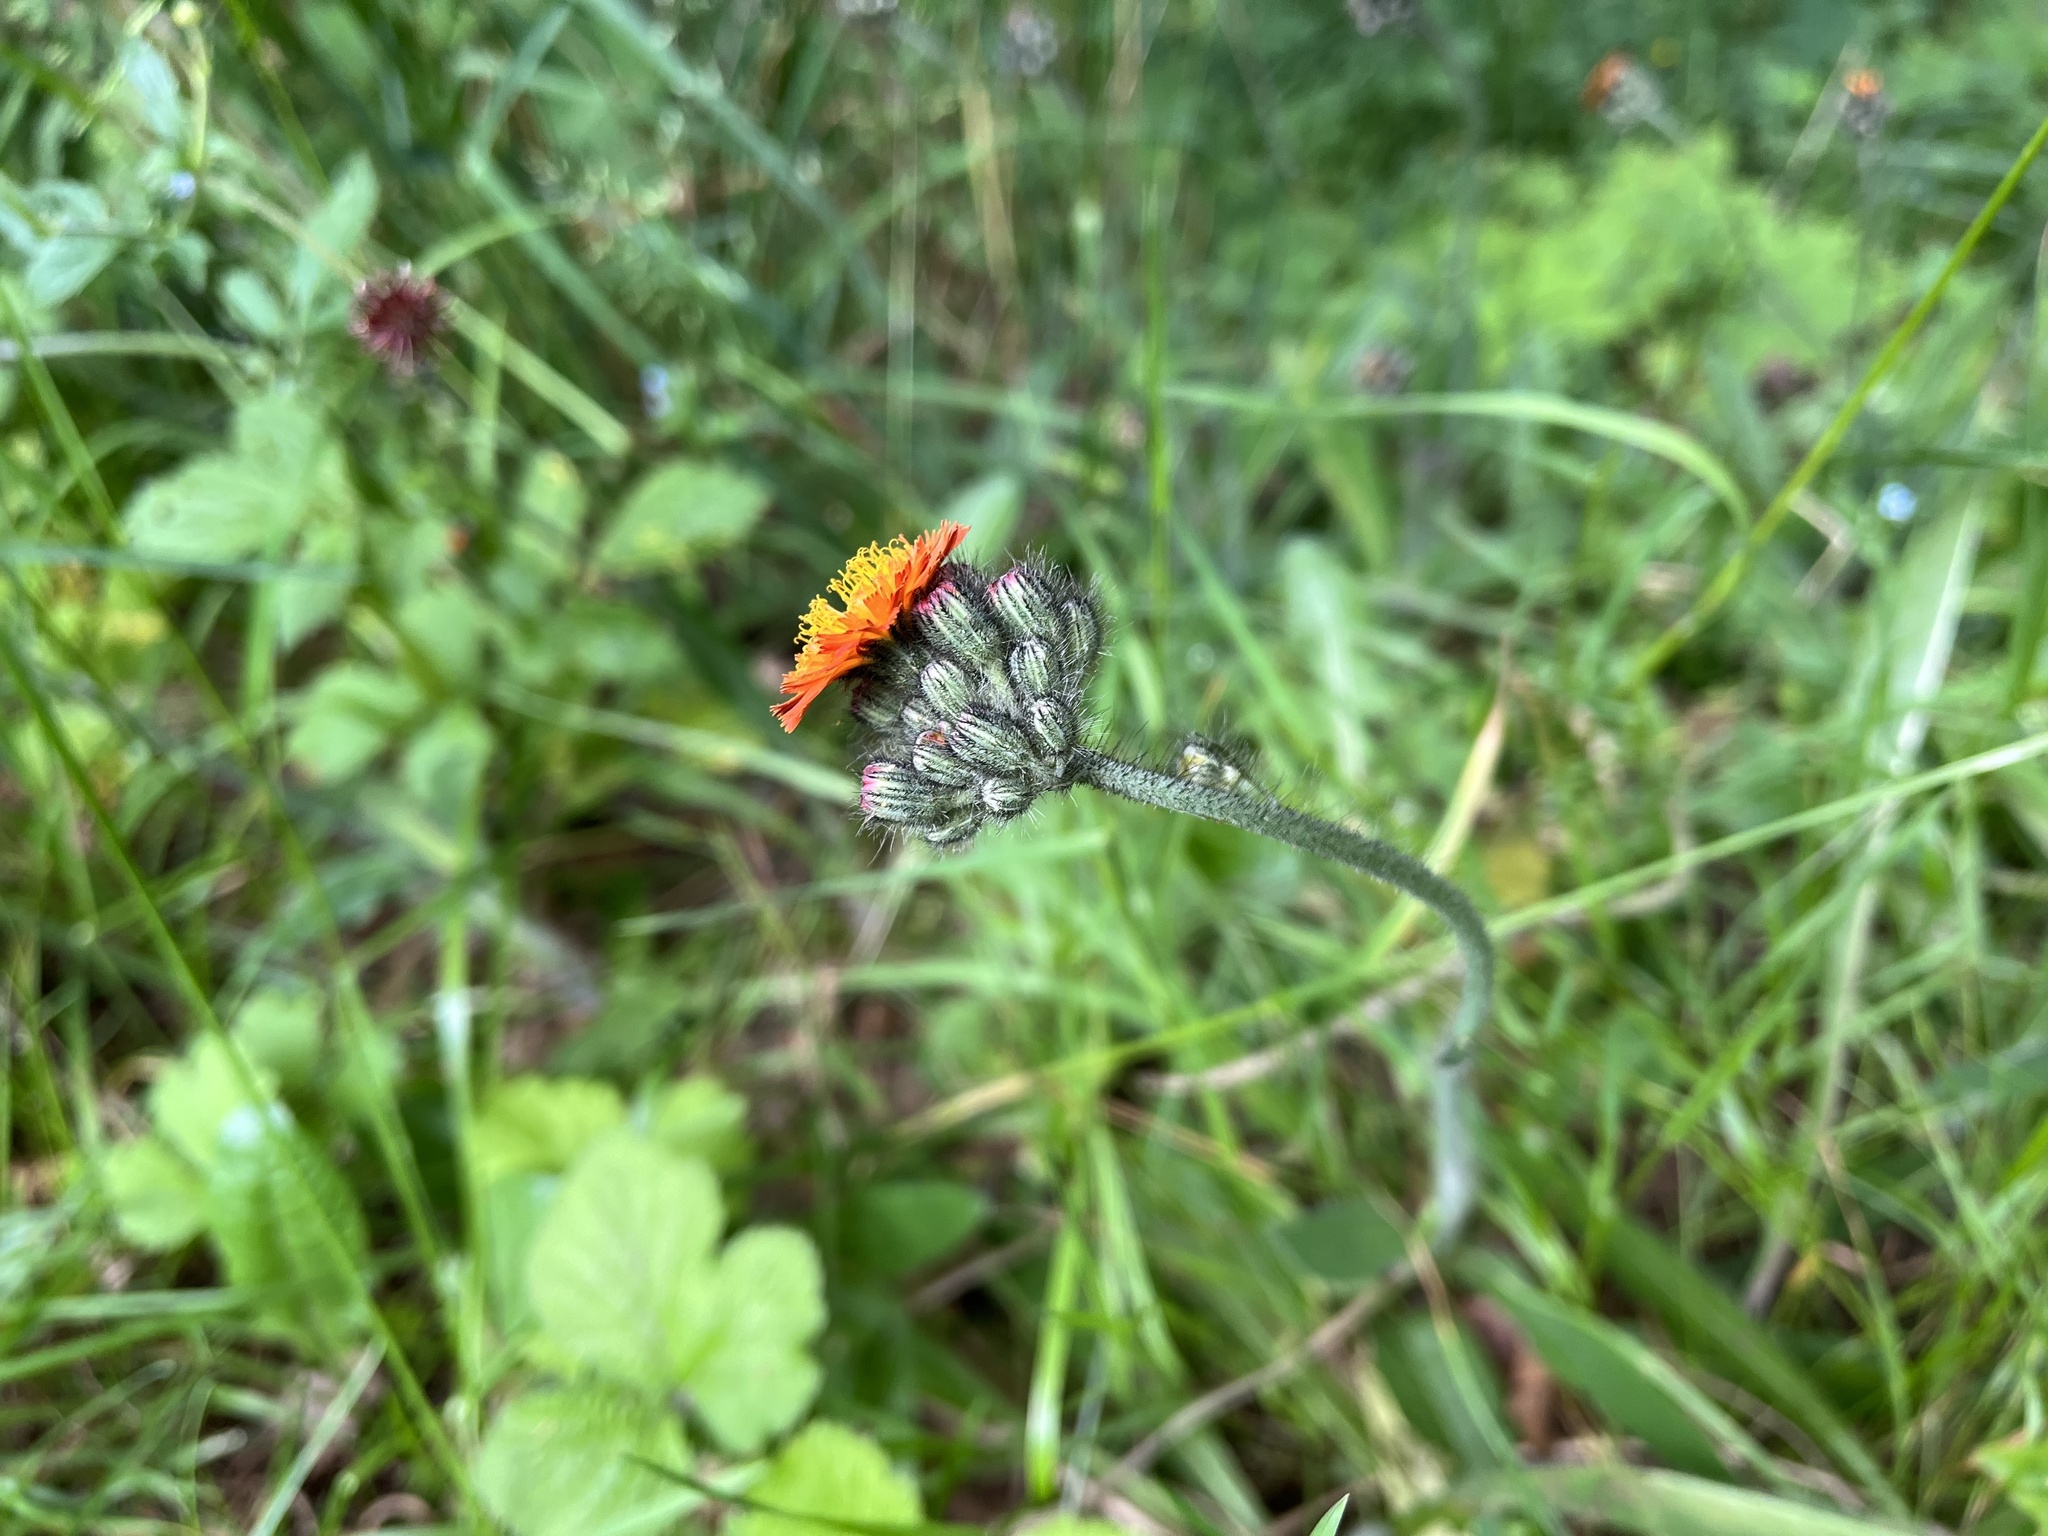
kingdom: Plantae
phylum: Tracheophyta
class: Magnoliopsida
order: Asterales
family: Asteraceae
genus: Pilosella
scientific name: Pilosella aurantiaca
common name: Fox-and-cubs
